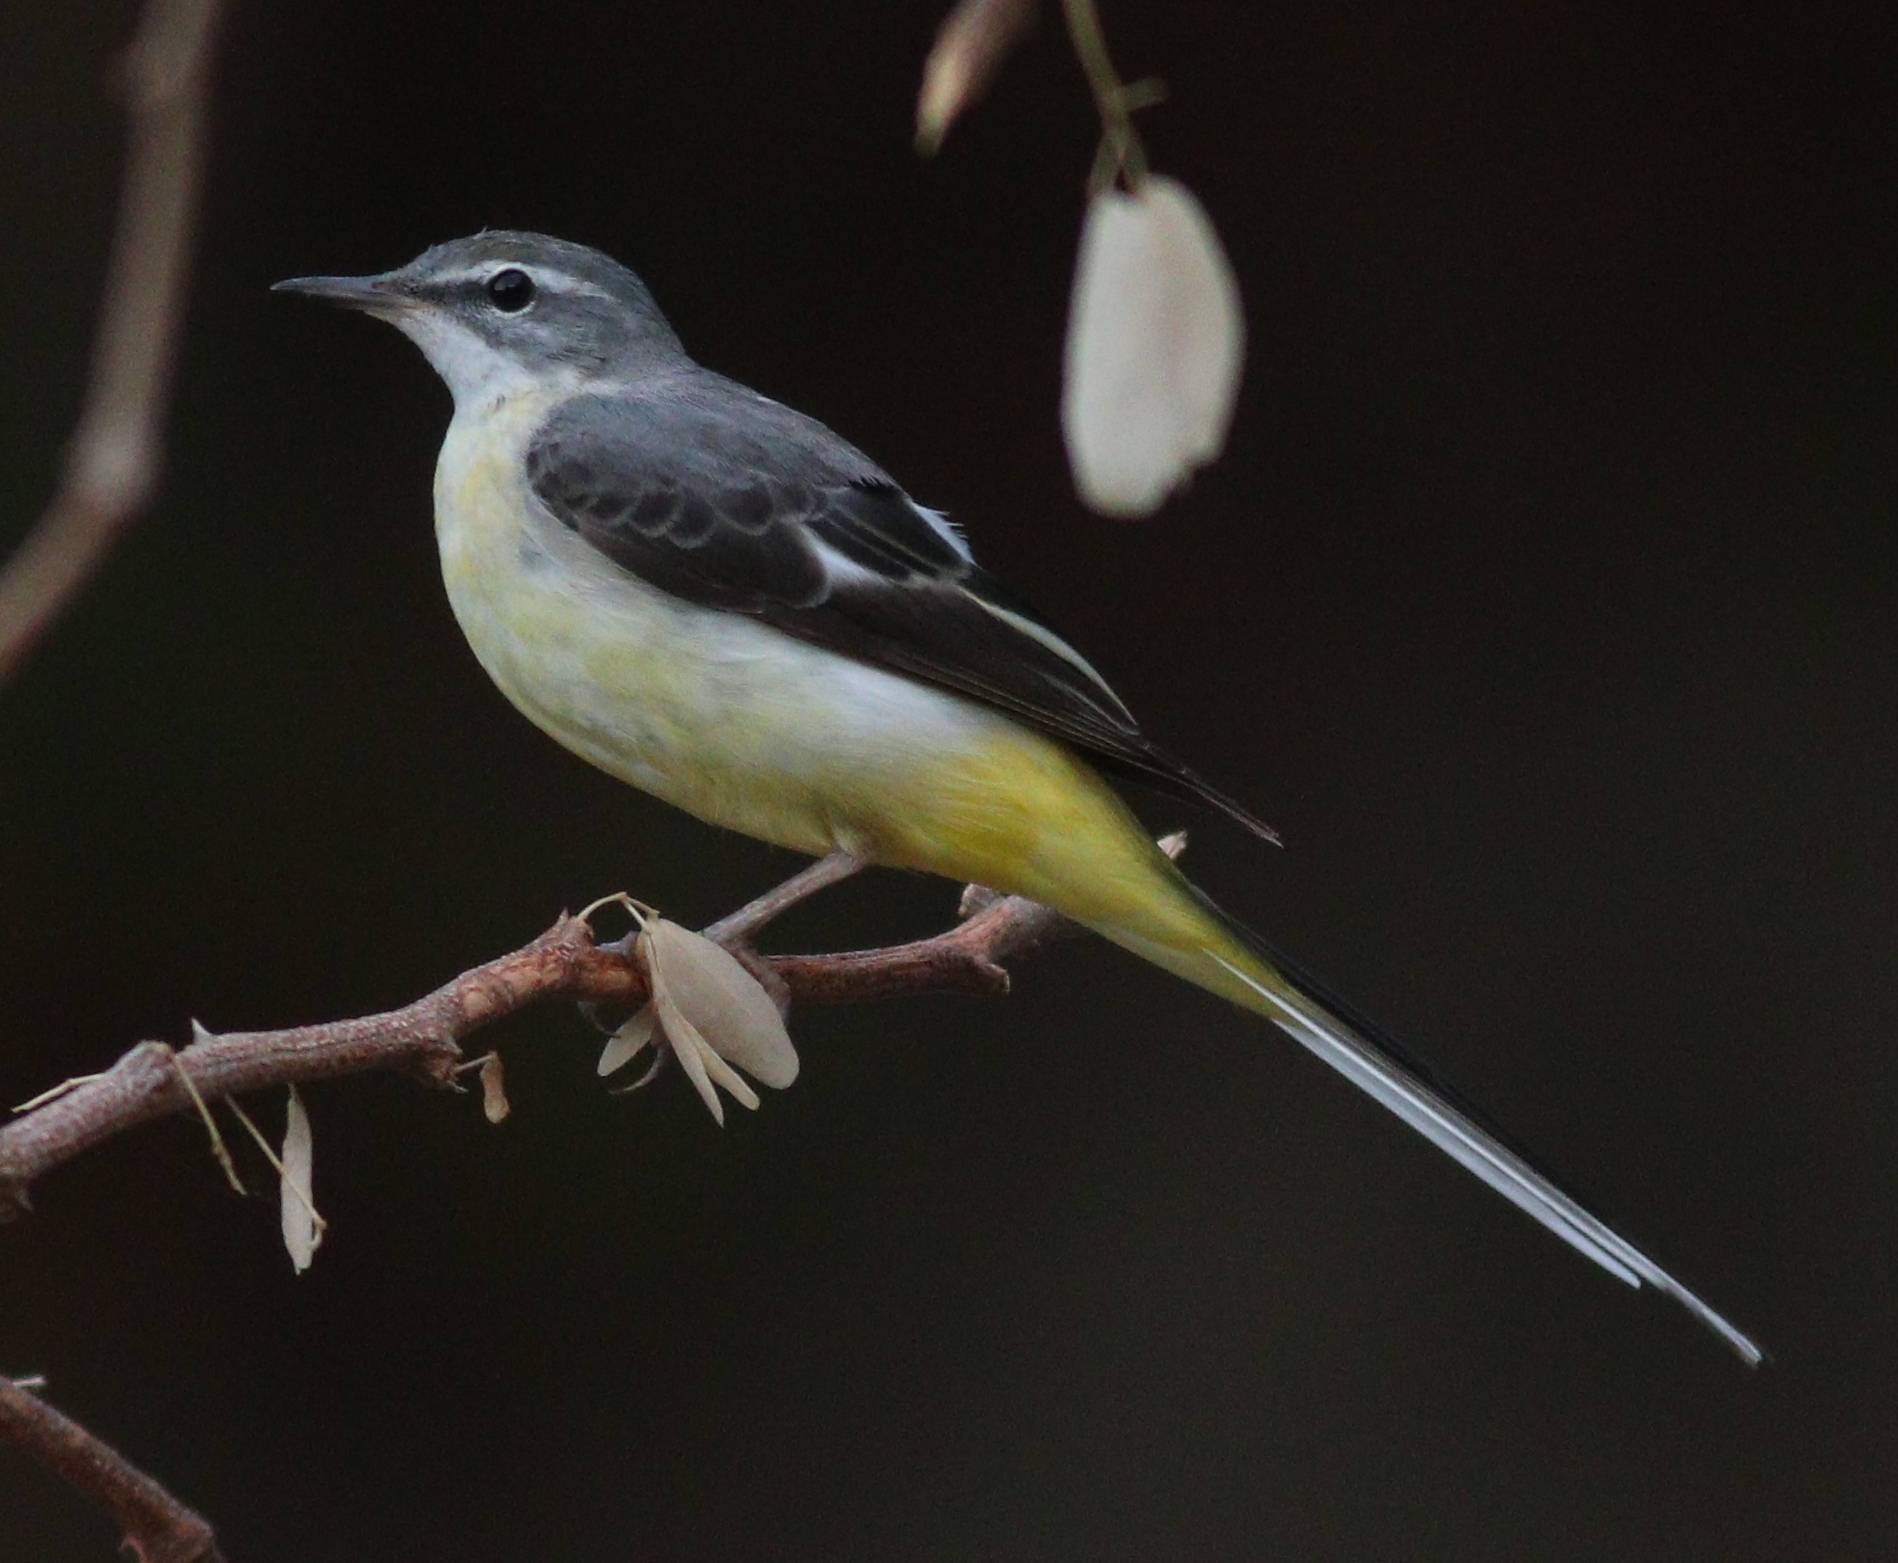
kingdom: Animalia
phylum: Chordata
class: Aves
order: Passeriformes
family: Motacillidae
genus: Motacilla
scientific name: Motacilla cinerea
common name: Grey wagtail
